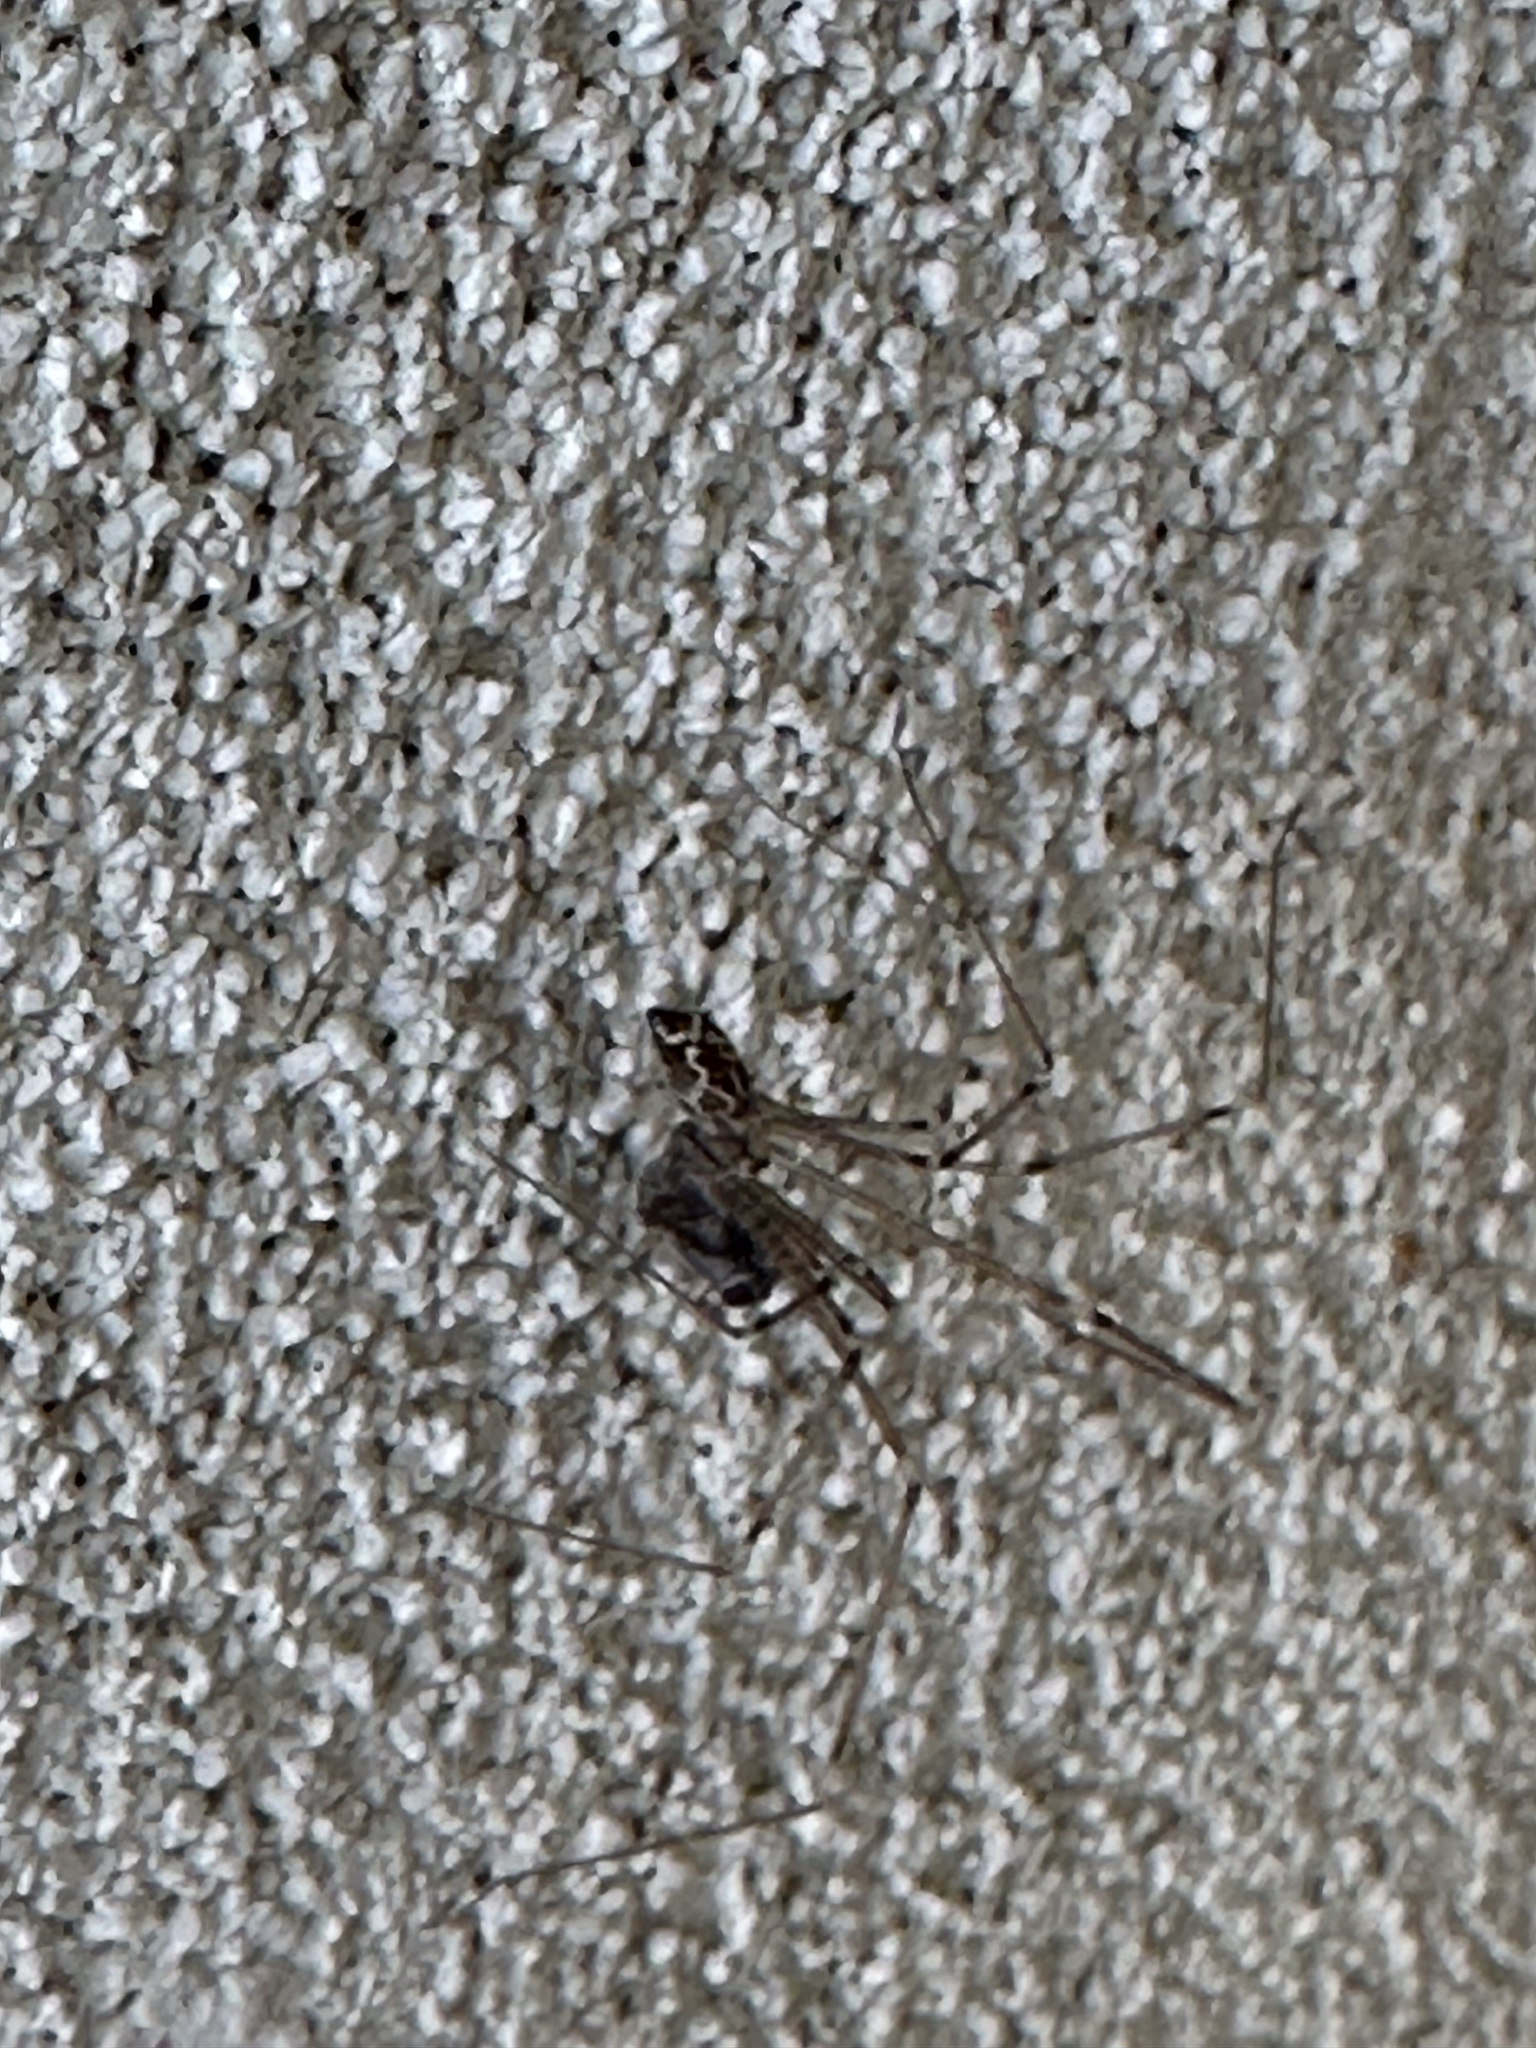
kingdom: Animalia
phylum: Arthropoda
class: Arachnida
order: Araneae
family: Pholcidae
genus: Holocnemus
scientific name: Holocnemus pluchei
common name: Marbled cellar spider
